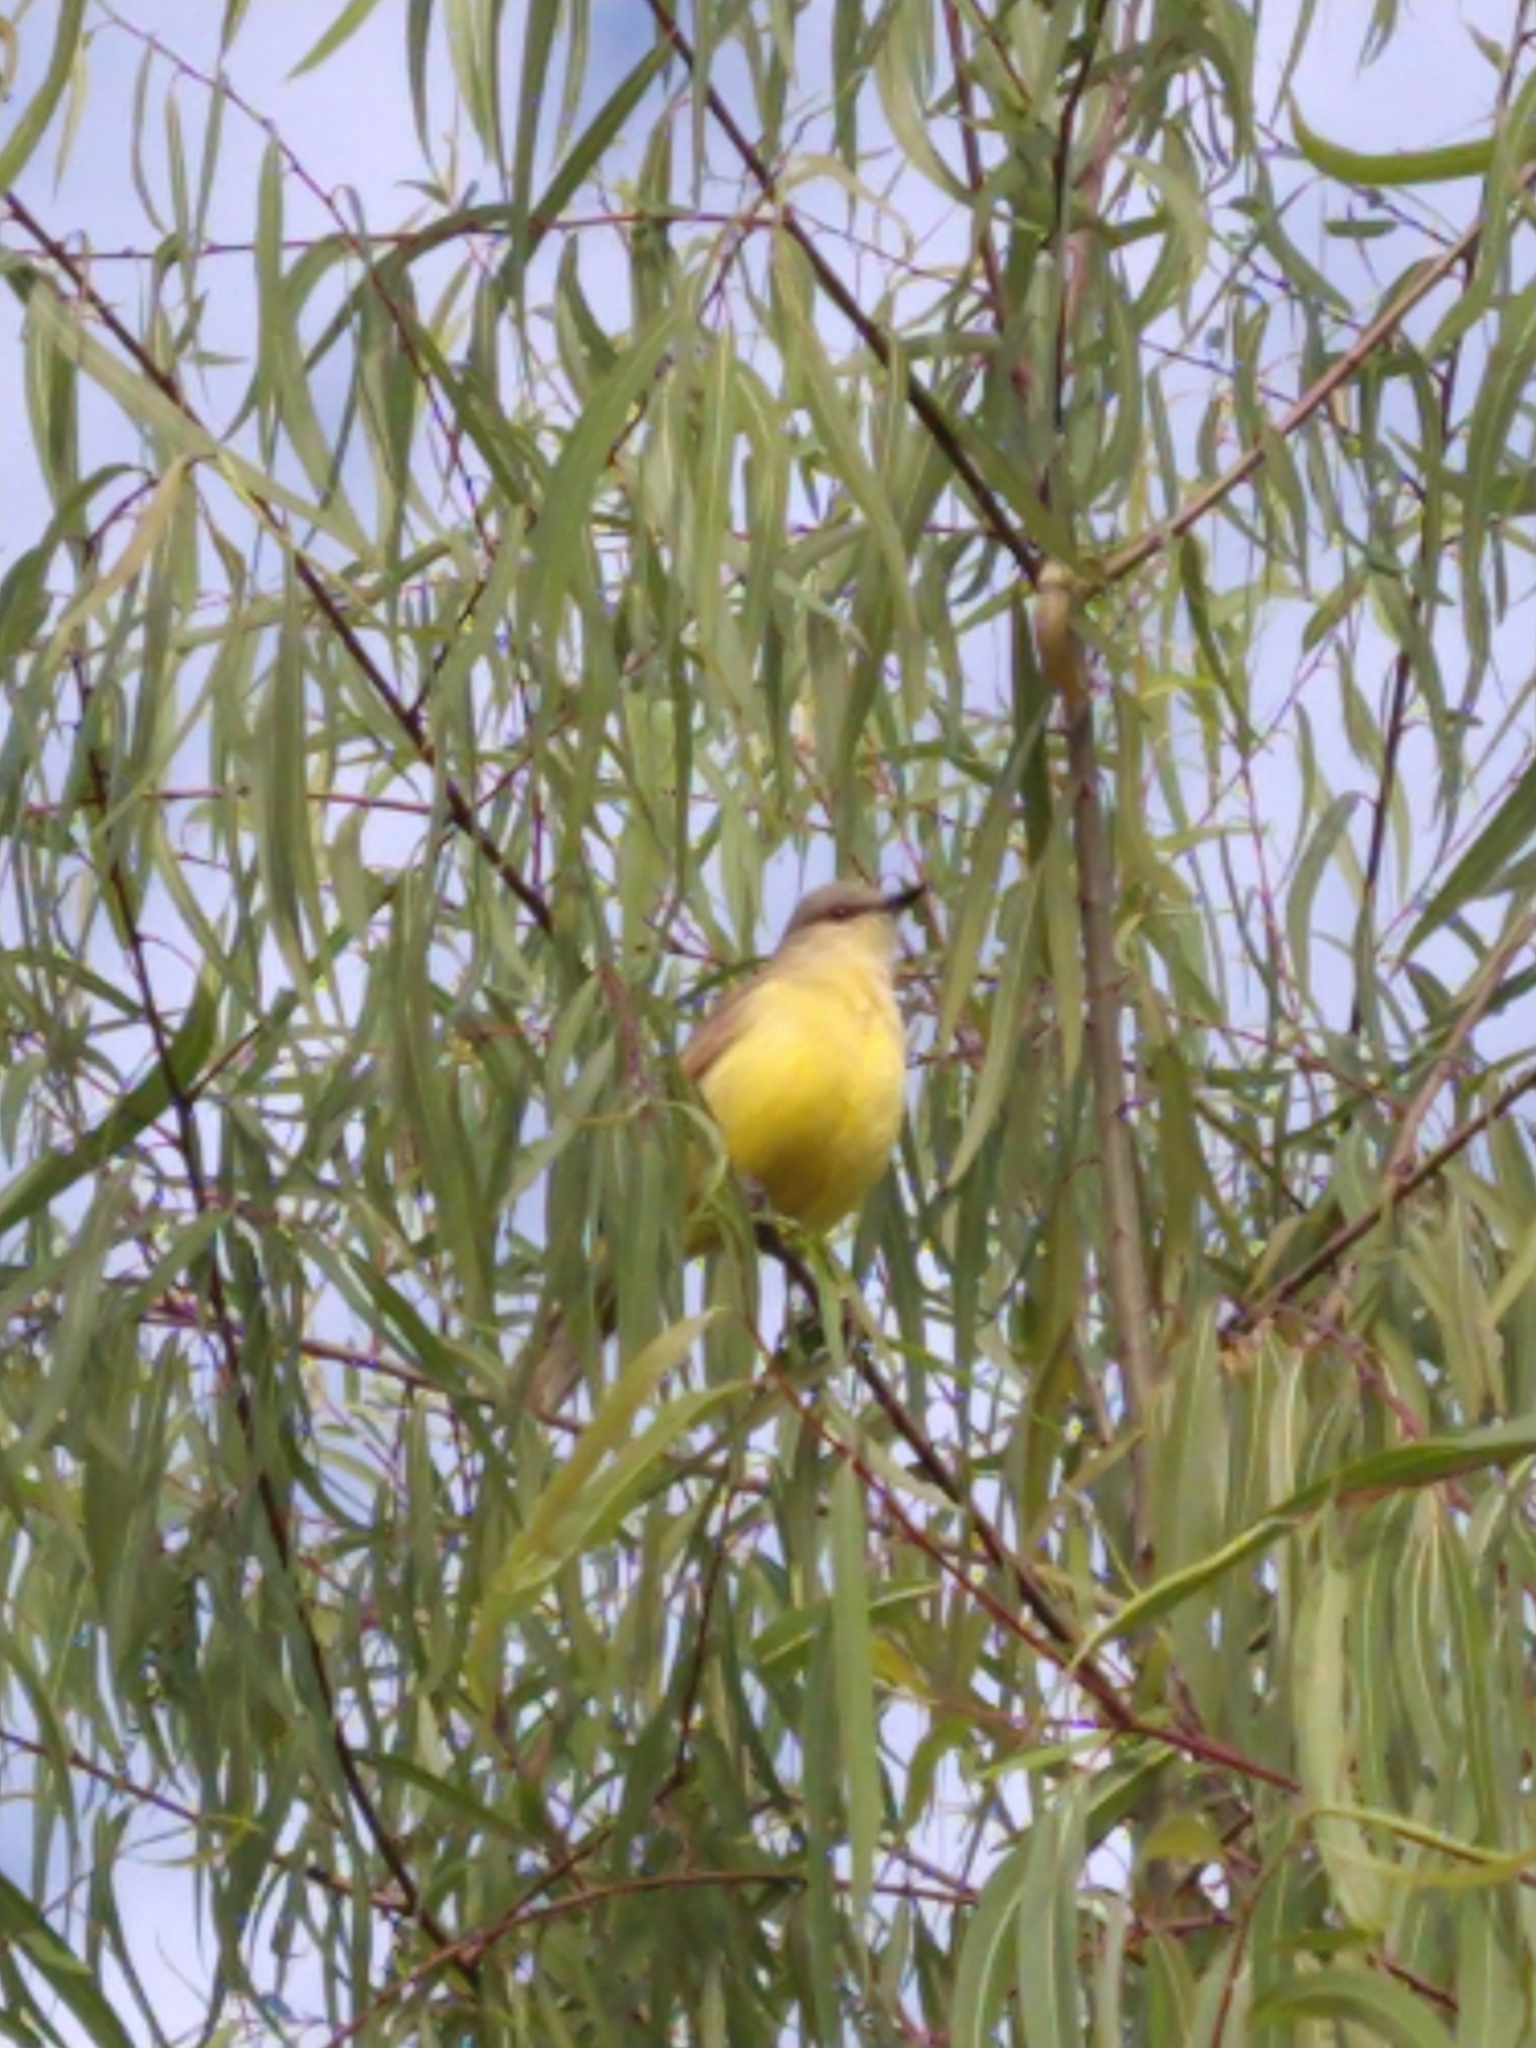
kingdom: Animalia
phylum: Chordata
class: Aves
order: Passeriformes
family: Tyrannidae
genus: Machetornis
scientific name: Machetornis rixosa
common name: Cattle tyrant
